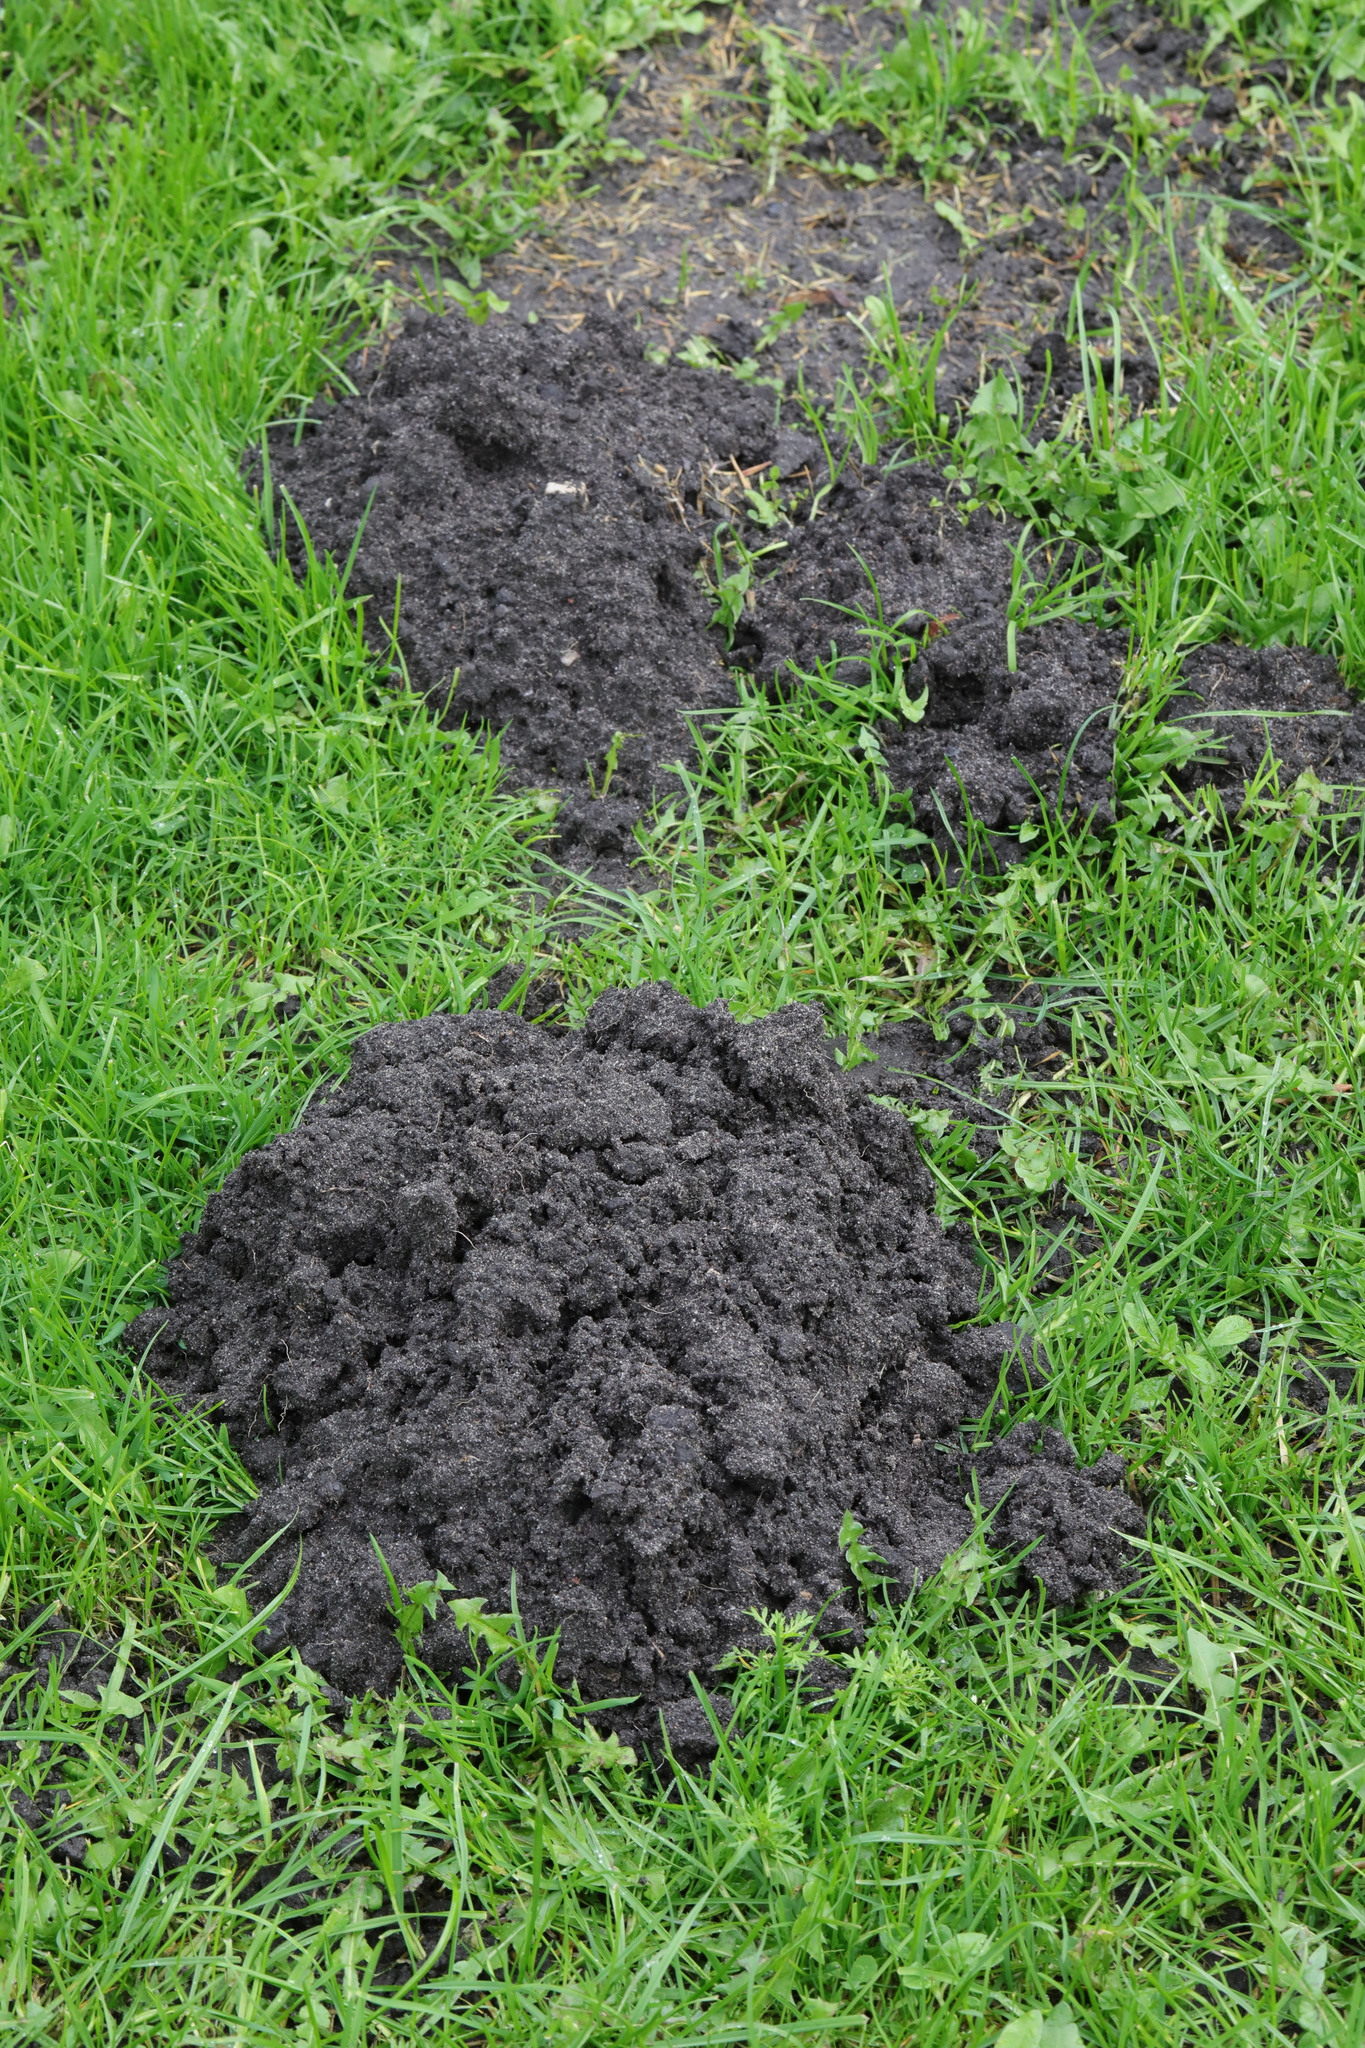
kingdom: Animalia
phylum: Chordata
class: Mammalia
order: Soricomorpha
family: Talpidae
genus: Talpa
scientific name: Talpa europaea
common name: European mole
